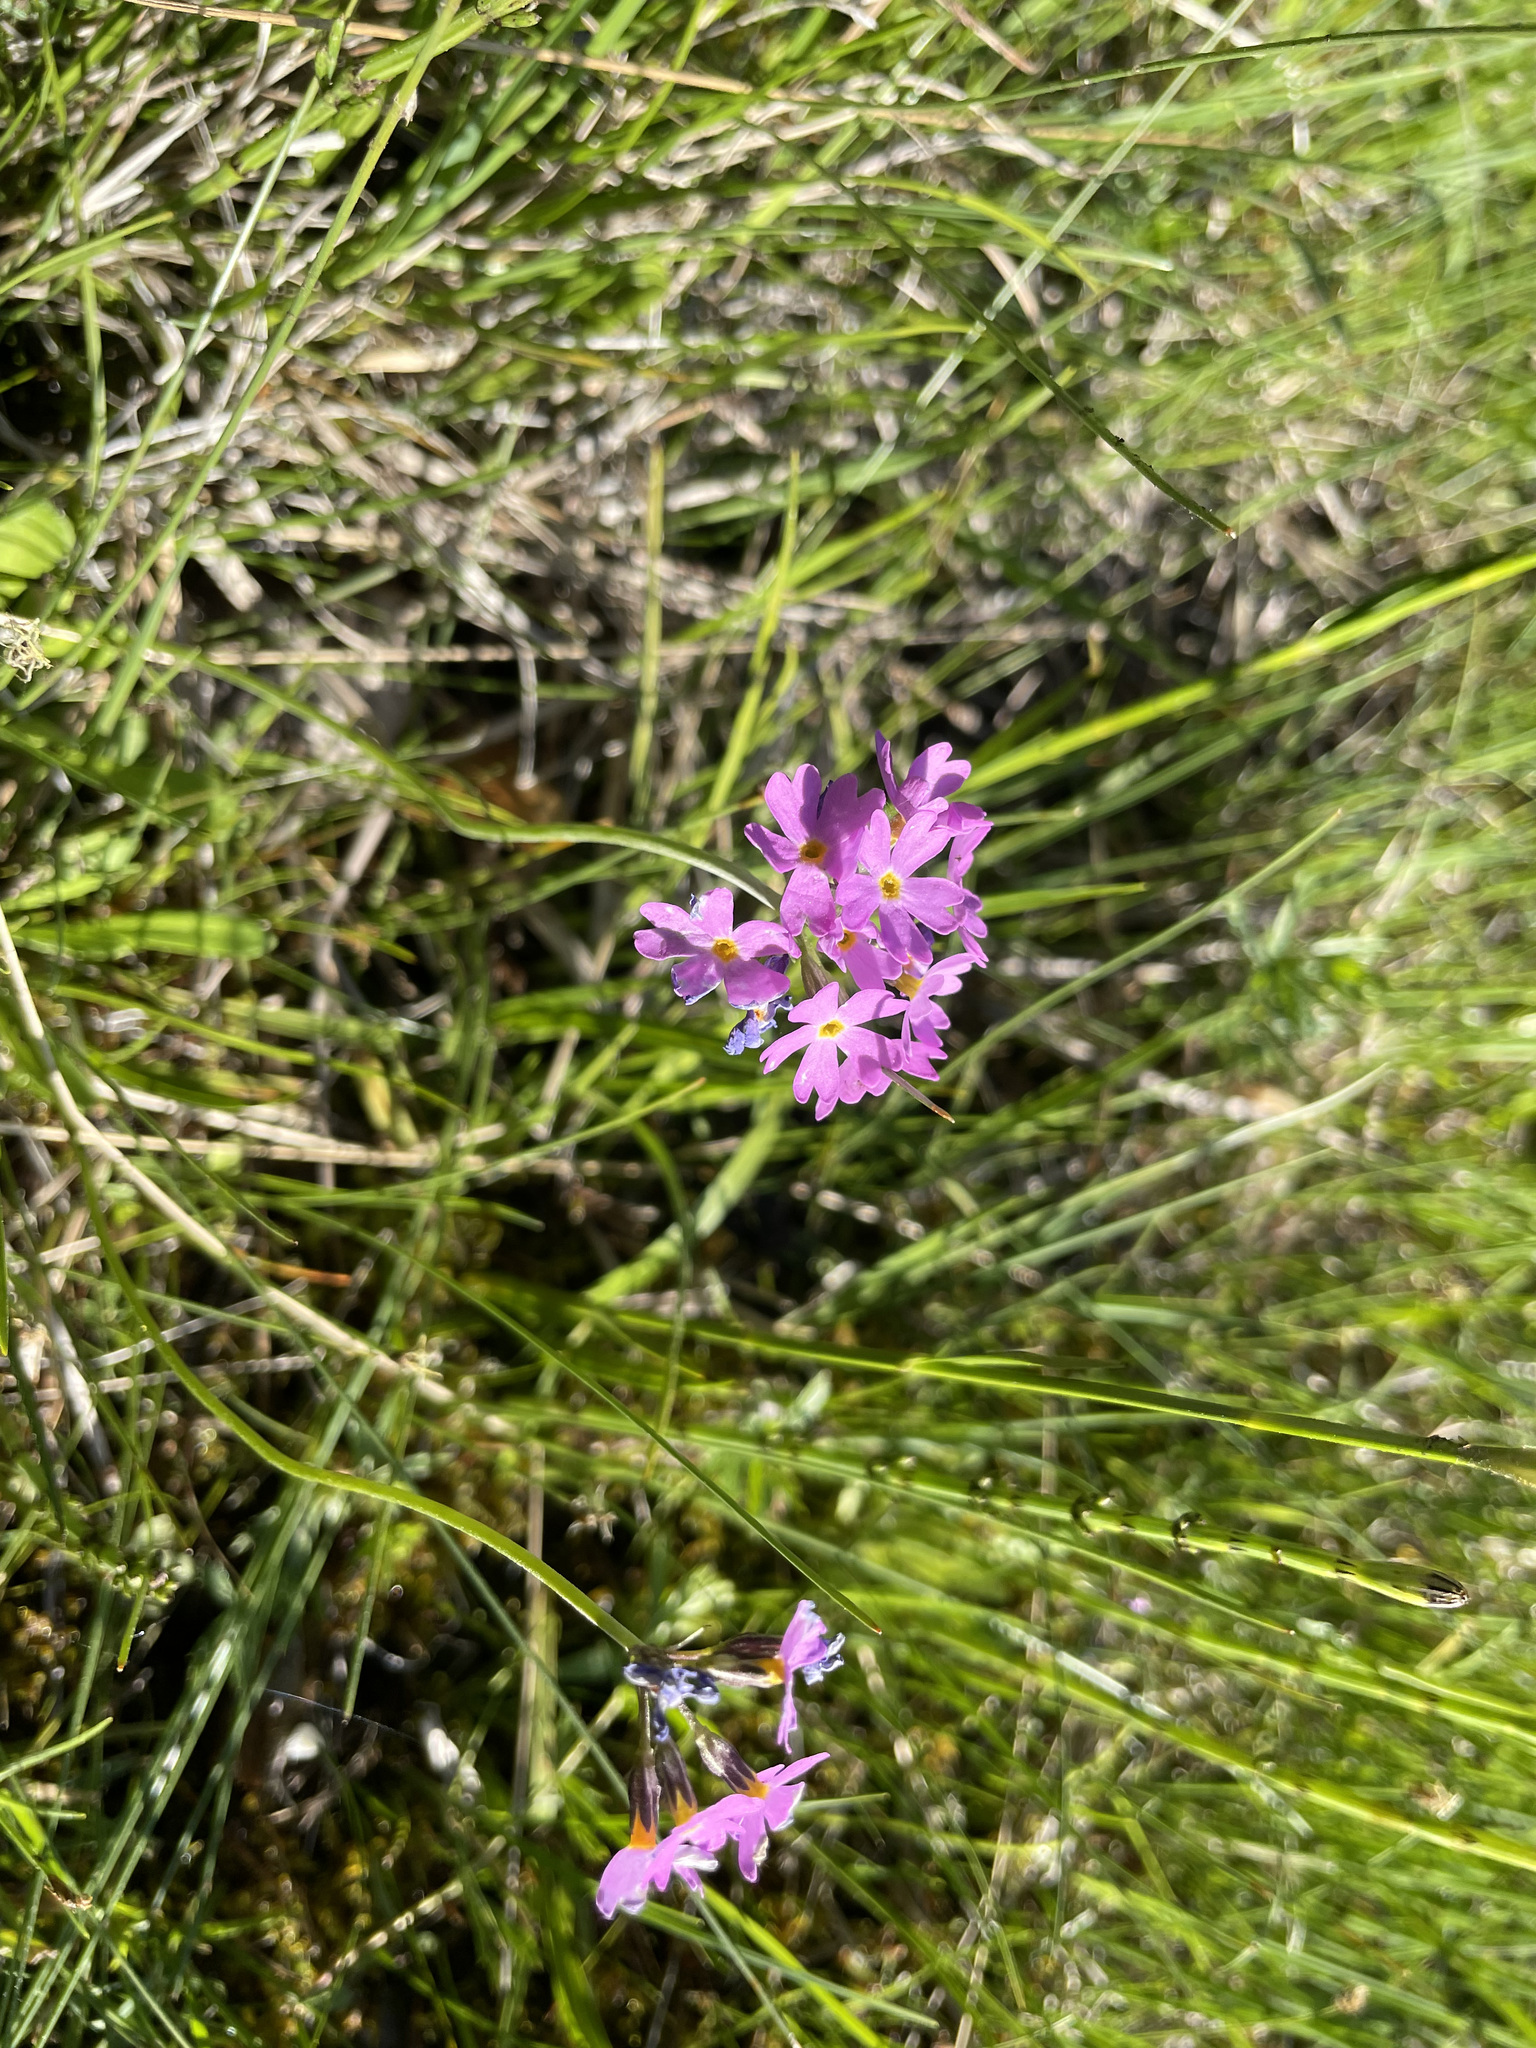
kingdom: Plantae
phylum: Tracheophyta
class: Magnoliopsida
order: Ericales
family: Primulaceae
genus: Primula
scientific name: Primula farinosa
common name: Bird's-eye primrose
